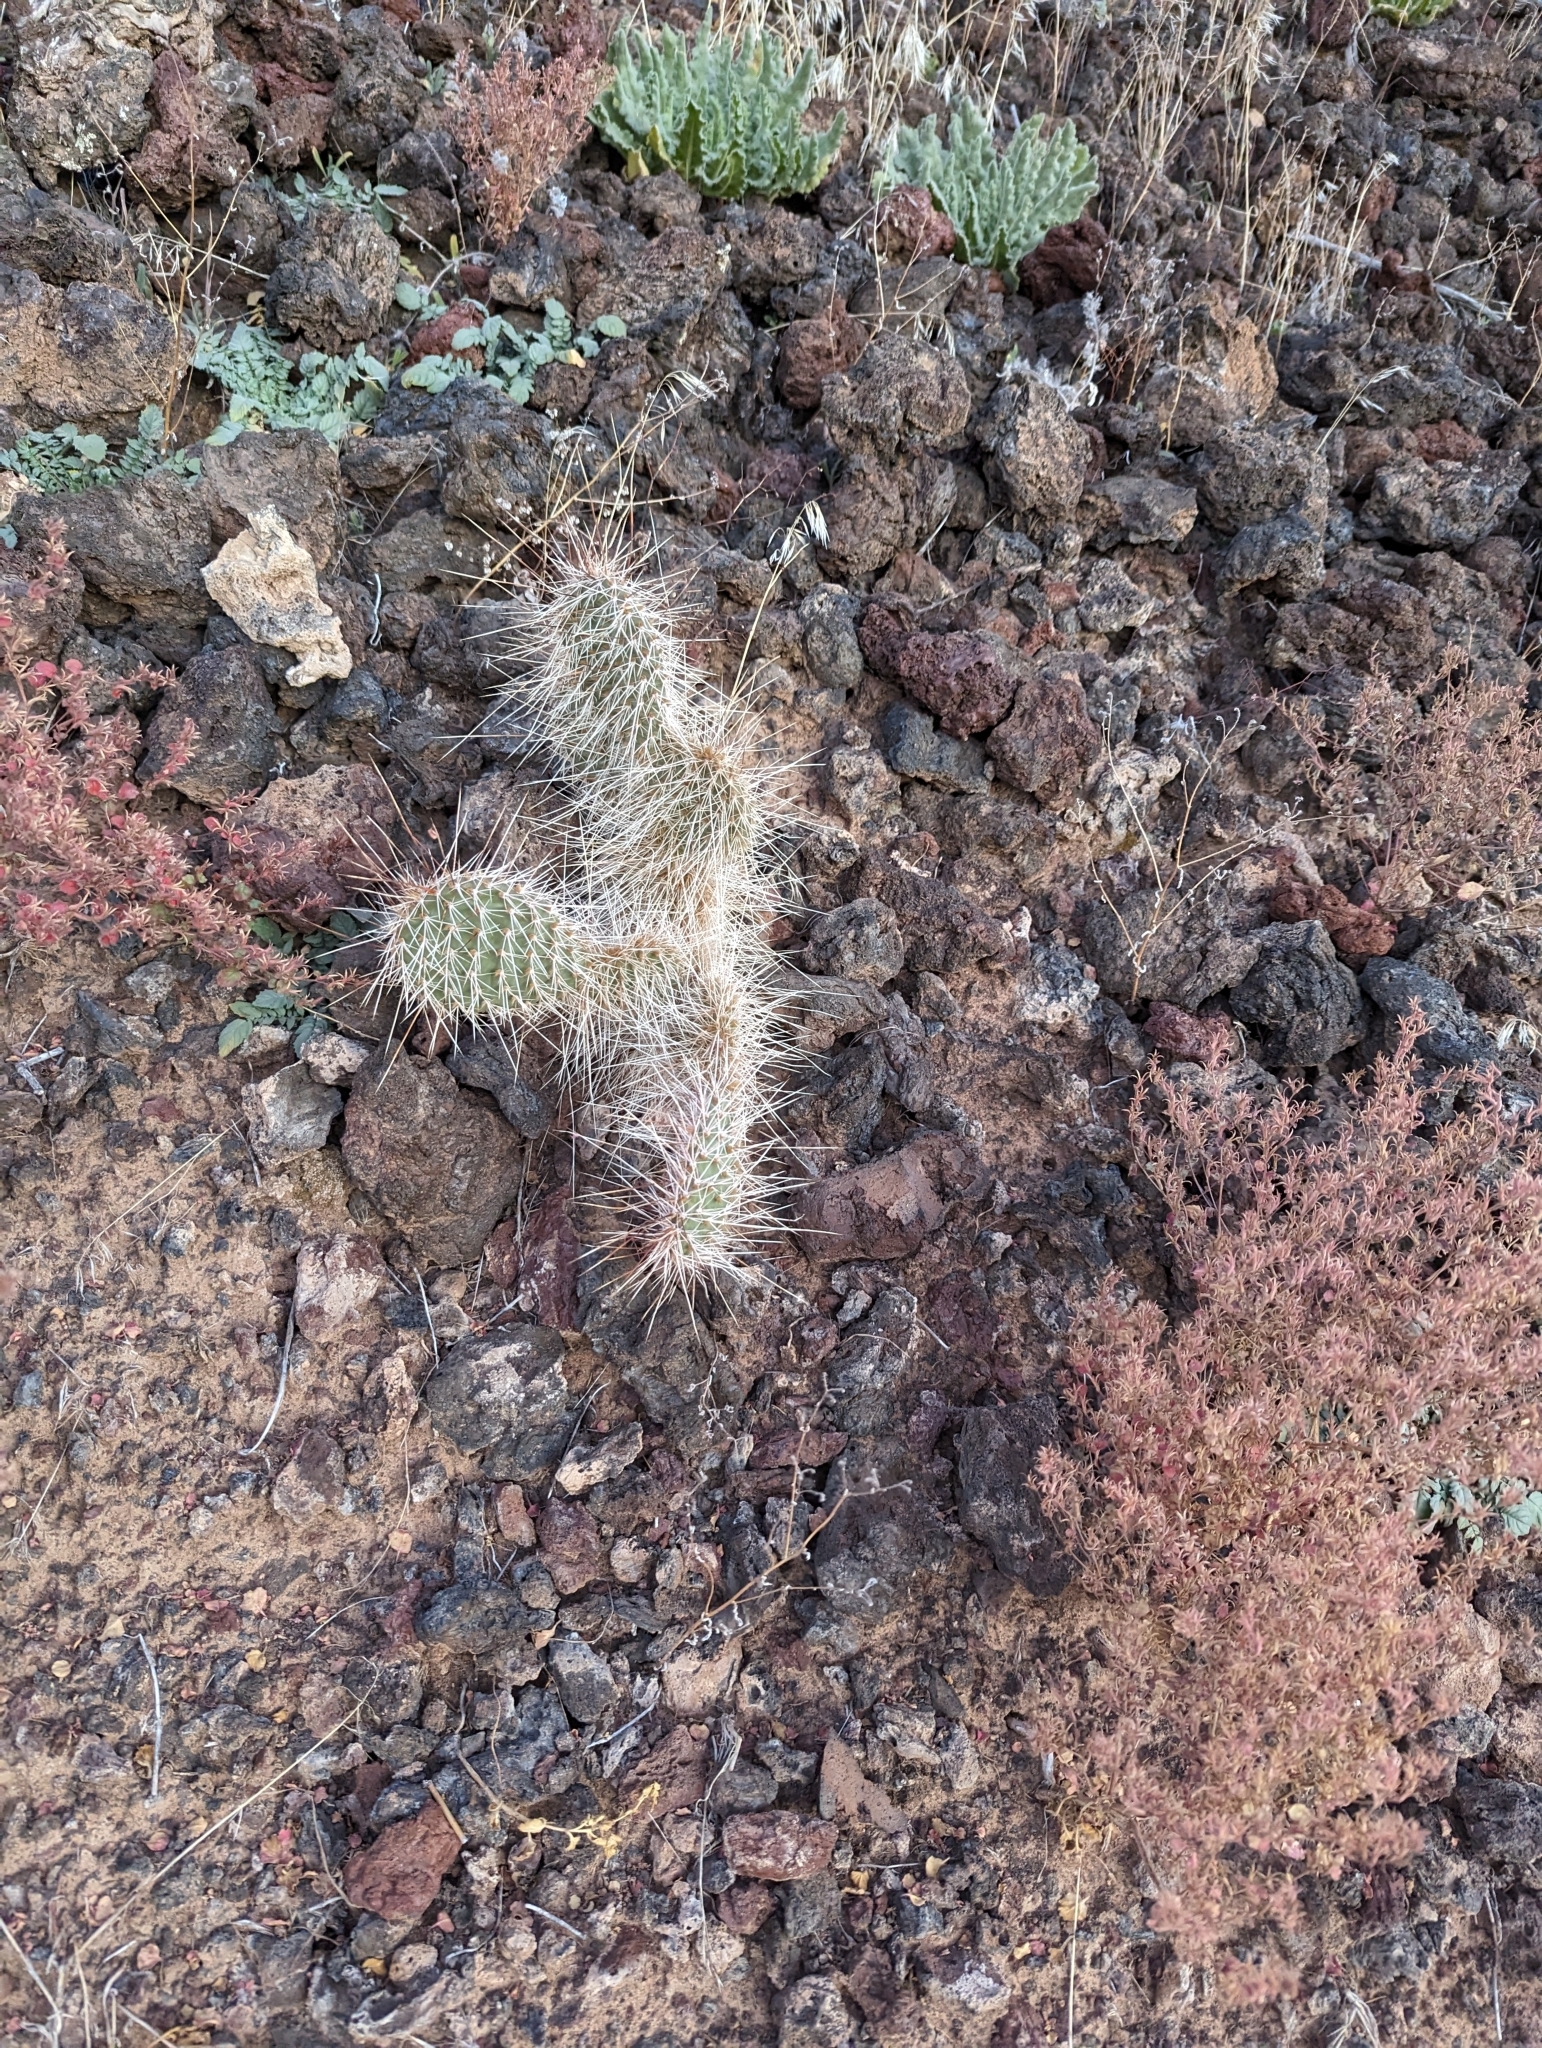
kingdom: Plantae
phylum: Tracheophyta
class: Magnoliopsida
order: Caryophyllales
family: Cactaceae
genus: Opuntia
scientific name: Opuntia polyacantha
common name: Plains prickly-pear
